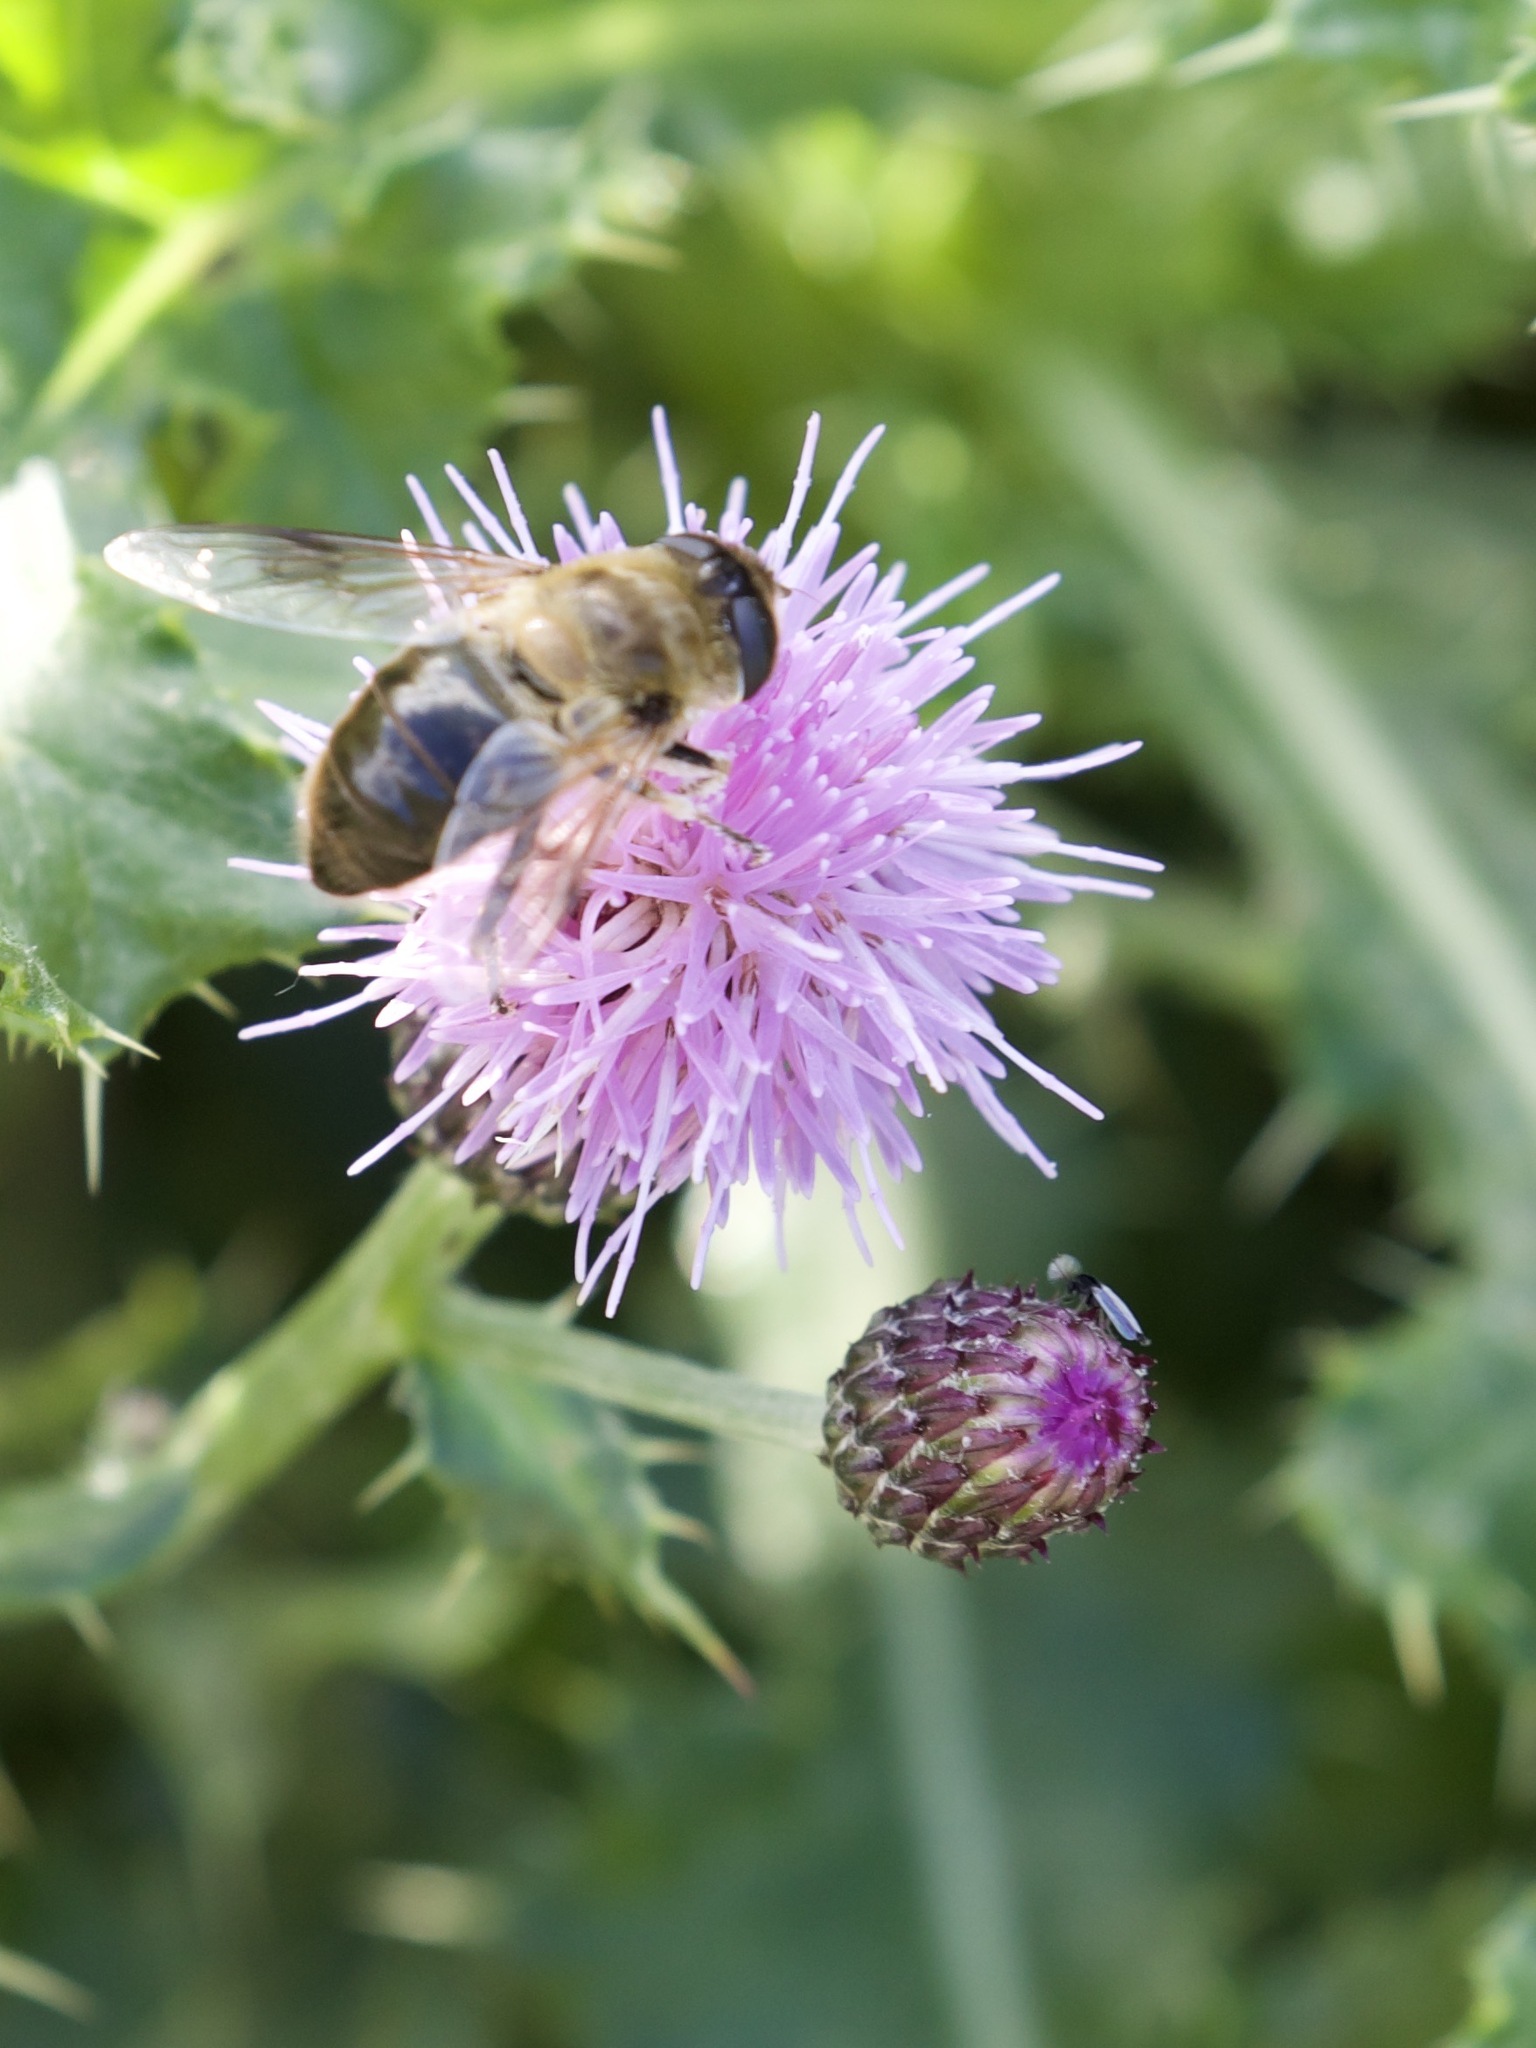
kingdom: Animalia
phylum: Arthropoda
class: Insecta
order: Diptera
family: Syrphidae
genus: Eristalis
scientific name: Eristalis tenax
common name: Drone fly
